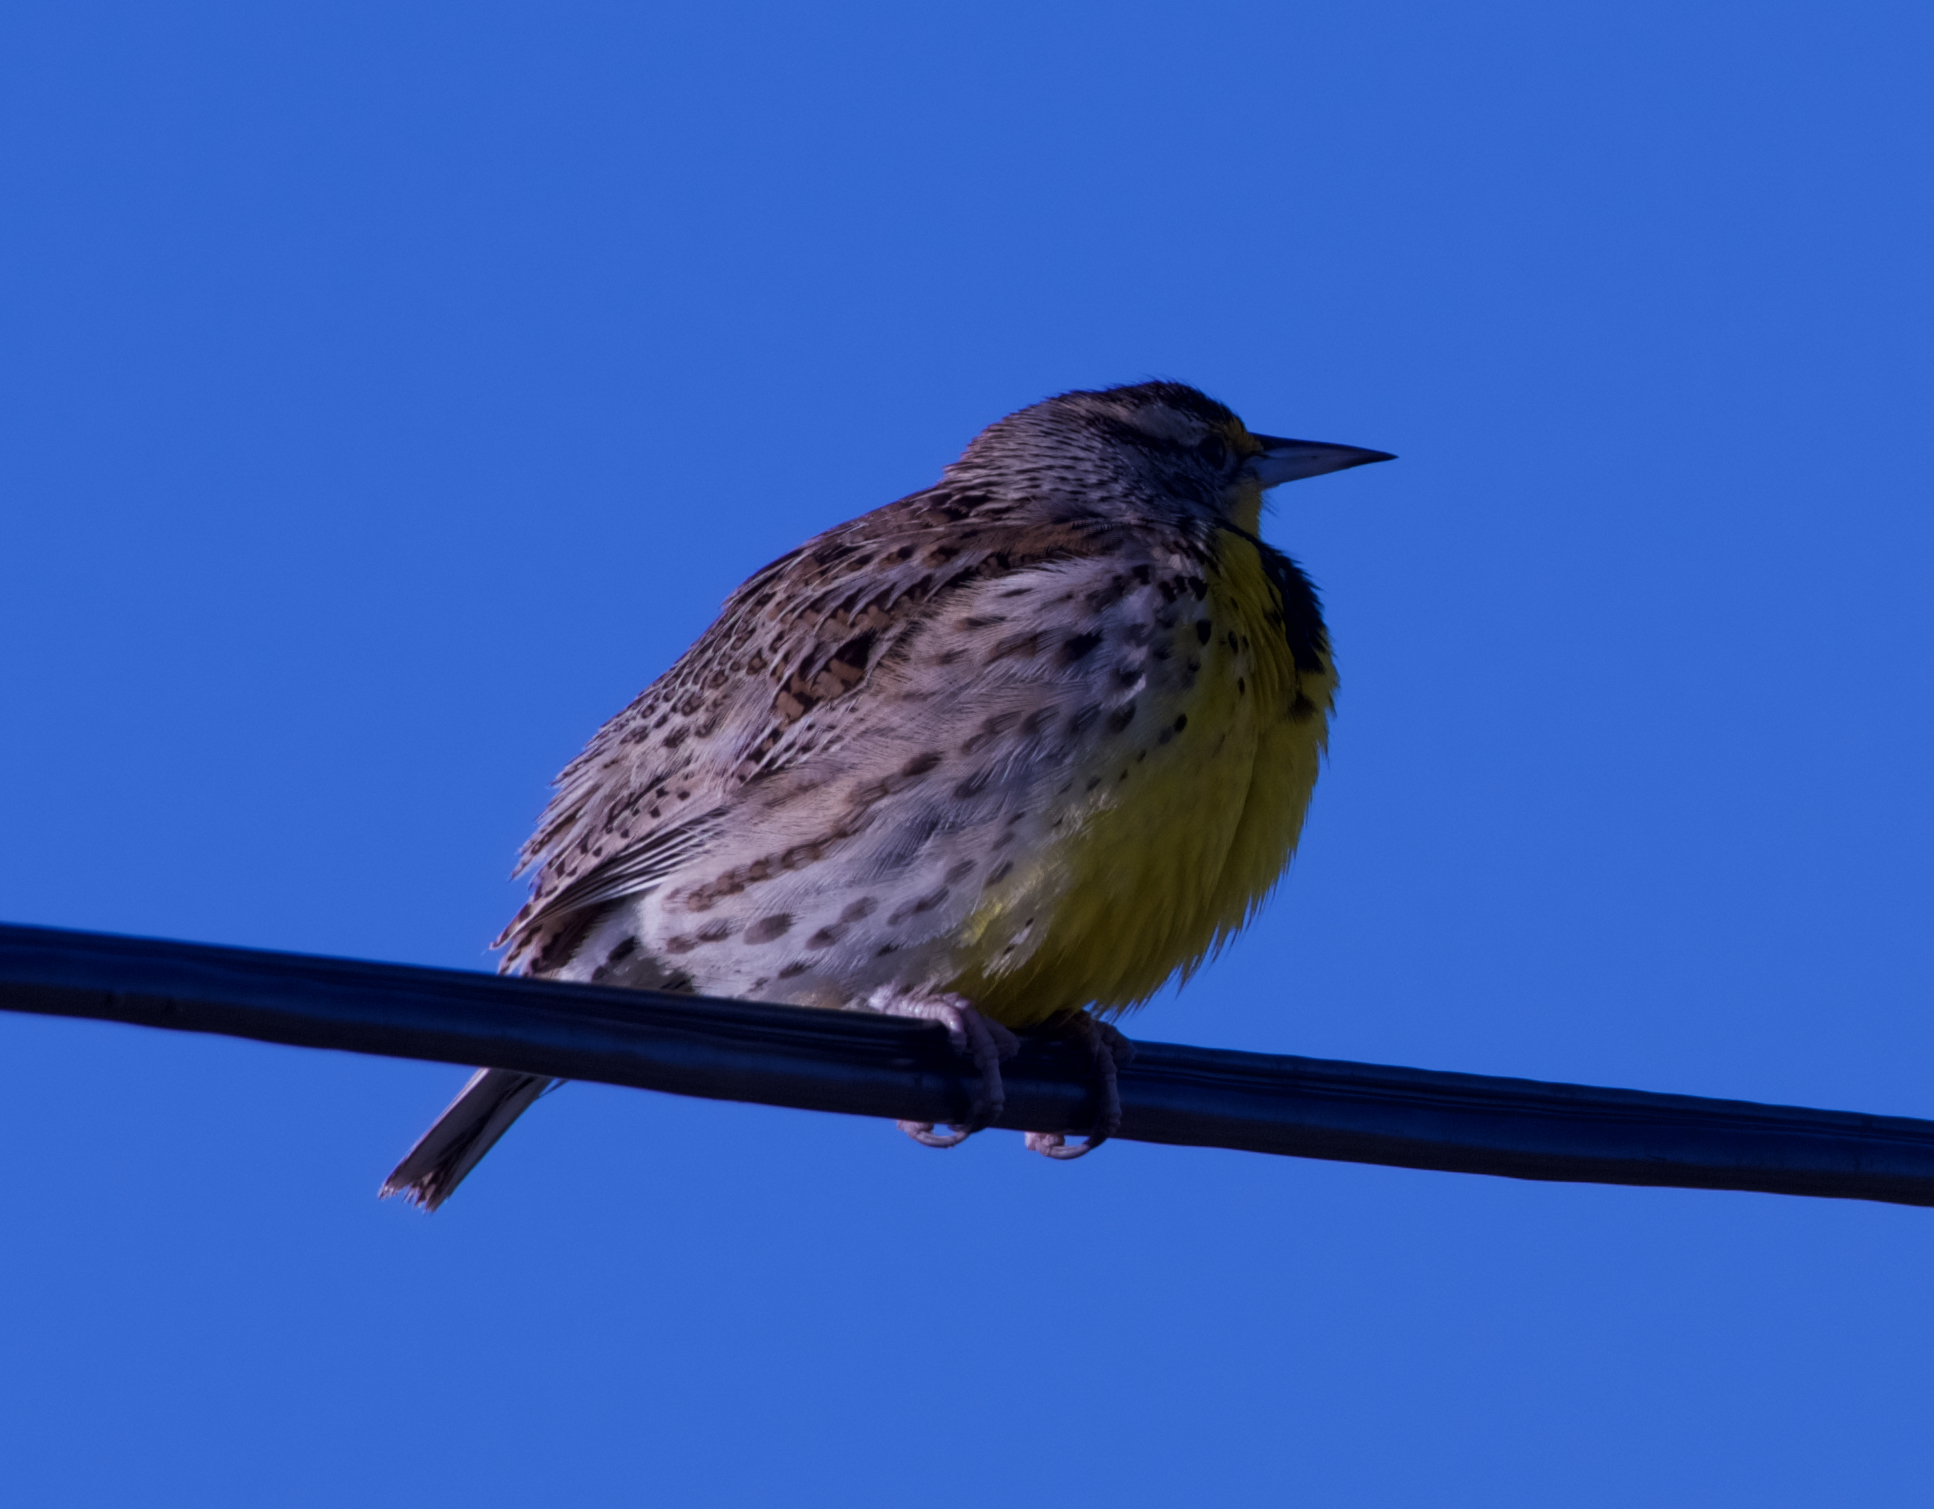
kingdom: Animalia
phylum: Chordata
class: Aves
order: Passeriformes
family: Icteridae
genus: Sturnella
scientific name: Sturnella neglecta
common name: Western meadowlark
